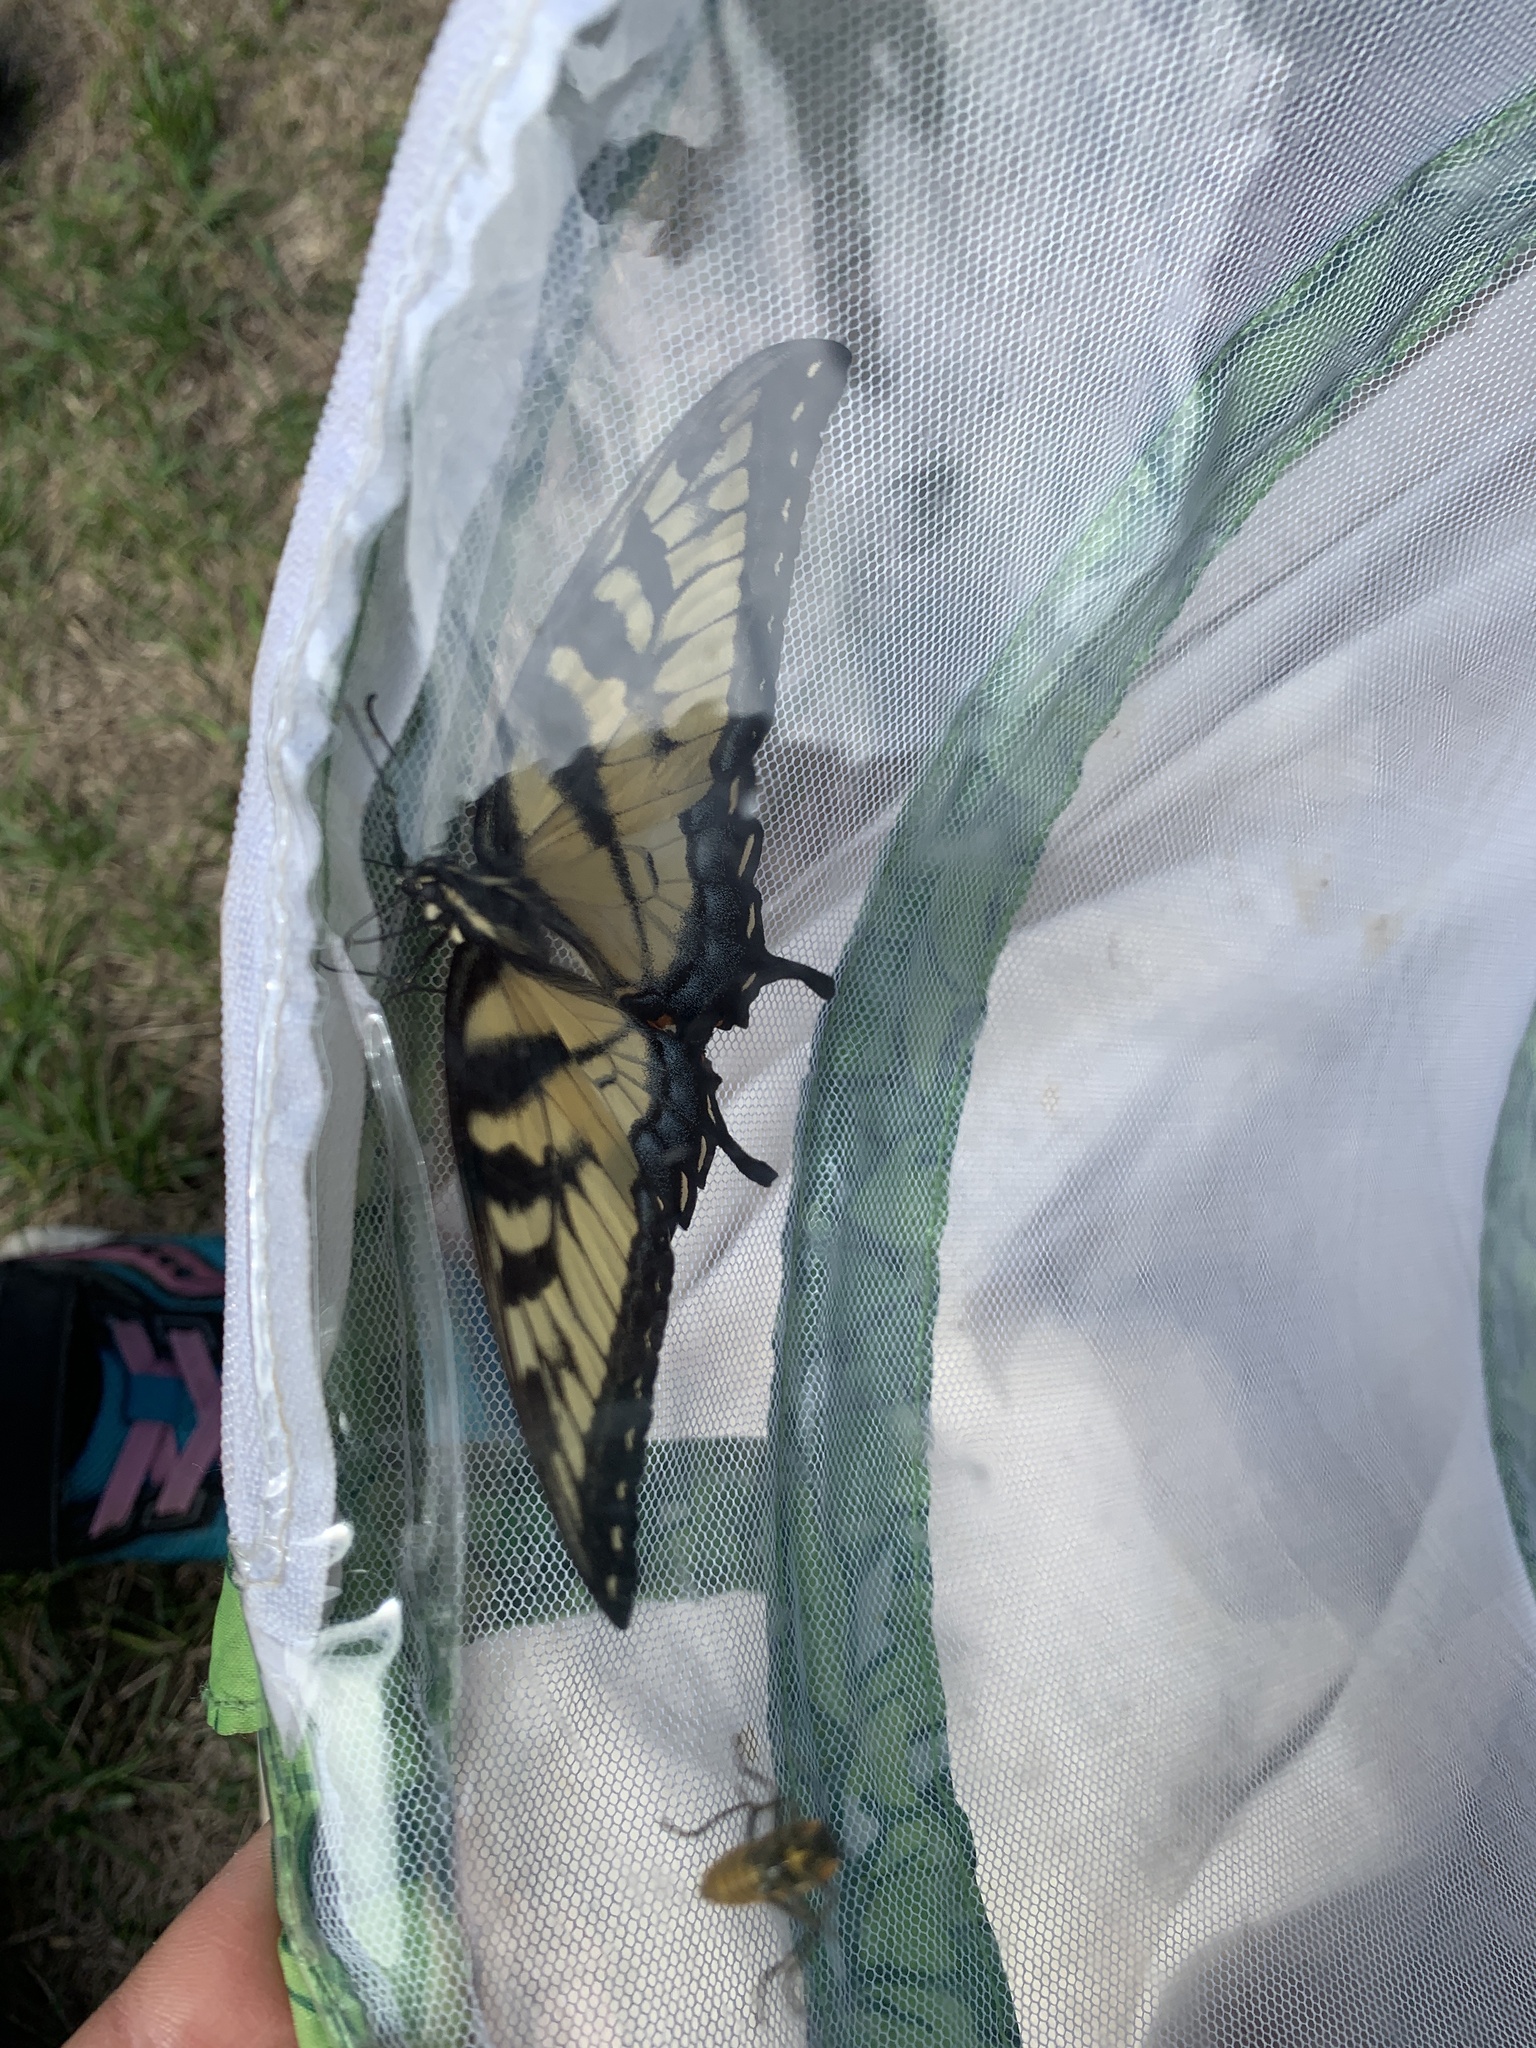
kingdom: Animalia
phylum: Arthropoda
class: Insecta
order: Lepidoptera
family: Papilionidae
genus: Papilio
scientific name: Papilio glaucus
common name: Tiger swallowtail
